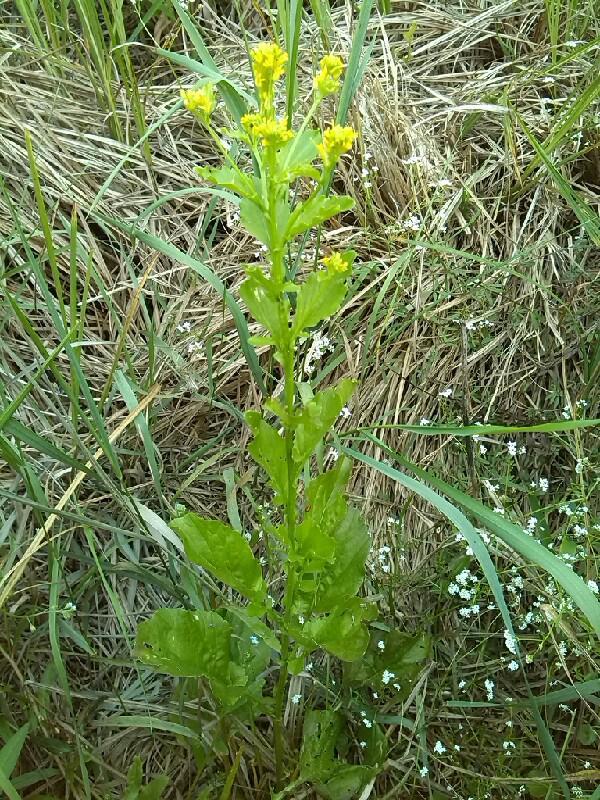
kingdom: Plantae
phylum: Tracheophyta
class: Magnoliopsida
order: Brassicales
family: Brassicaceae
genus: Barbarea
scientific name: Barbarea stricta
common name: Small-flowered winter-cress
